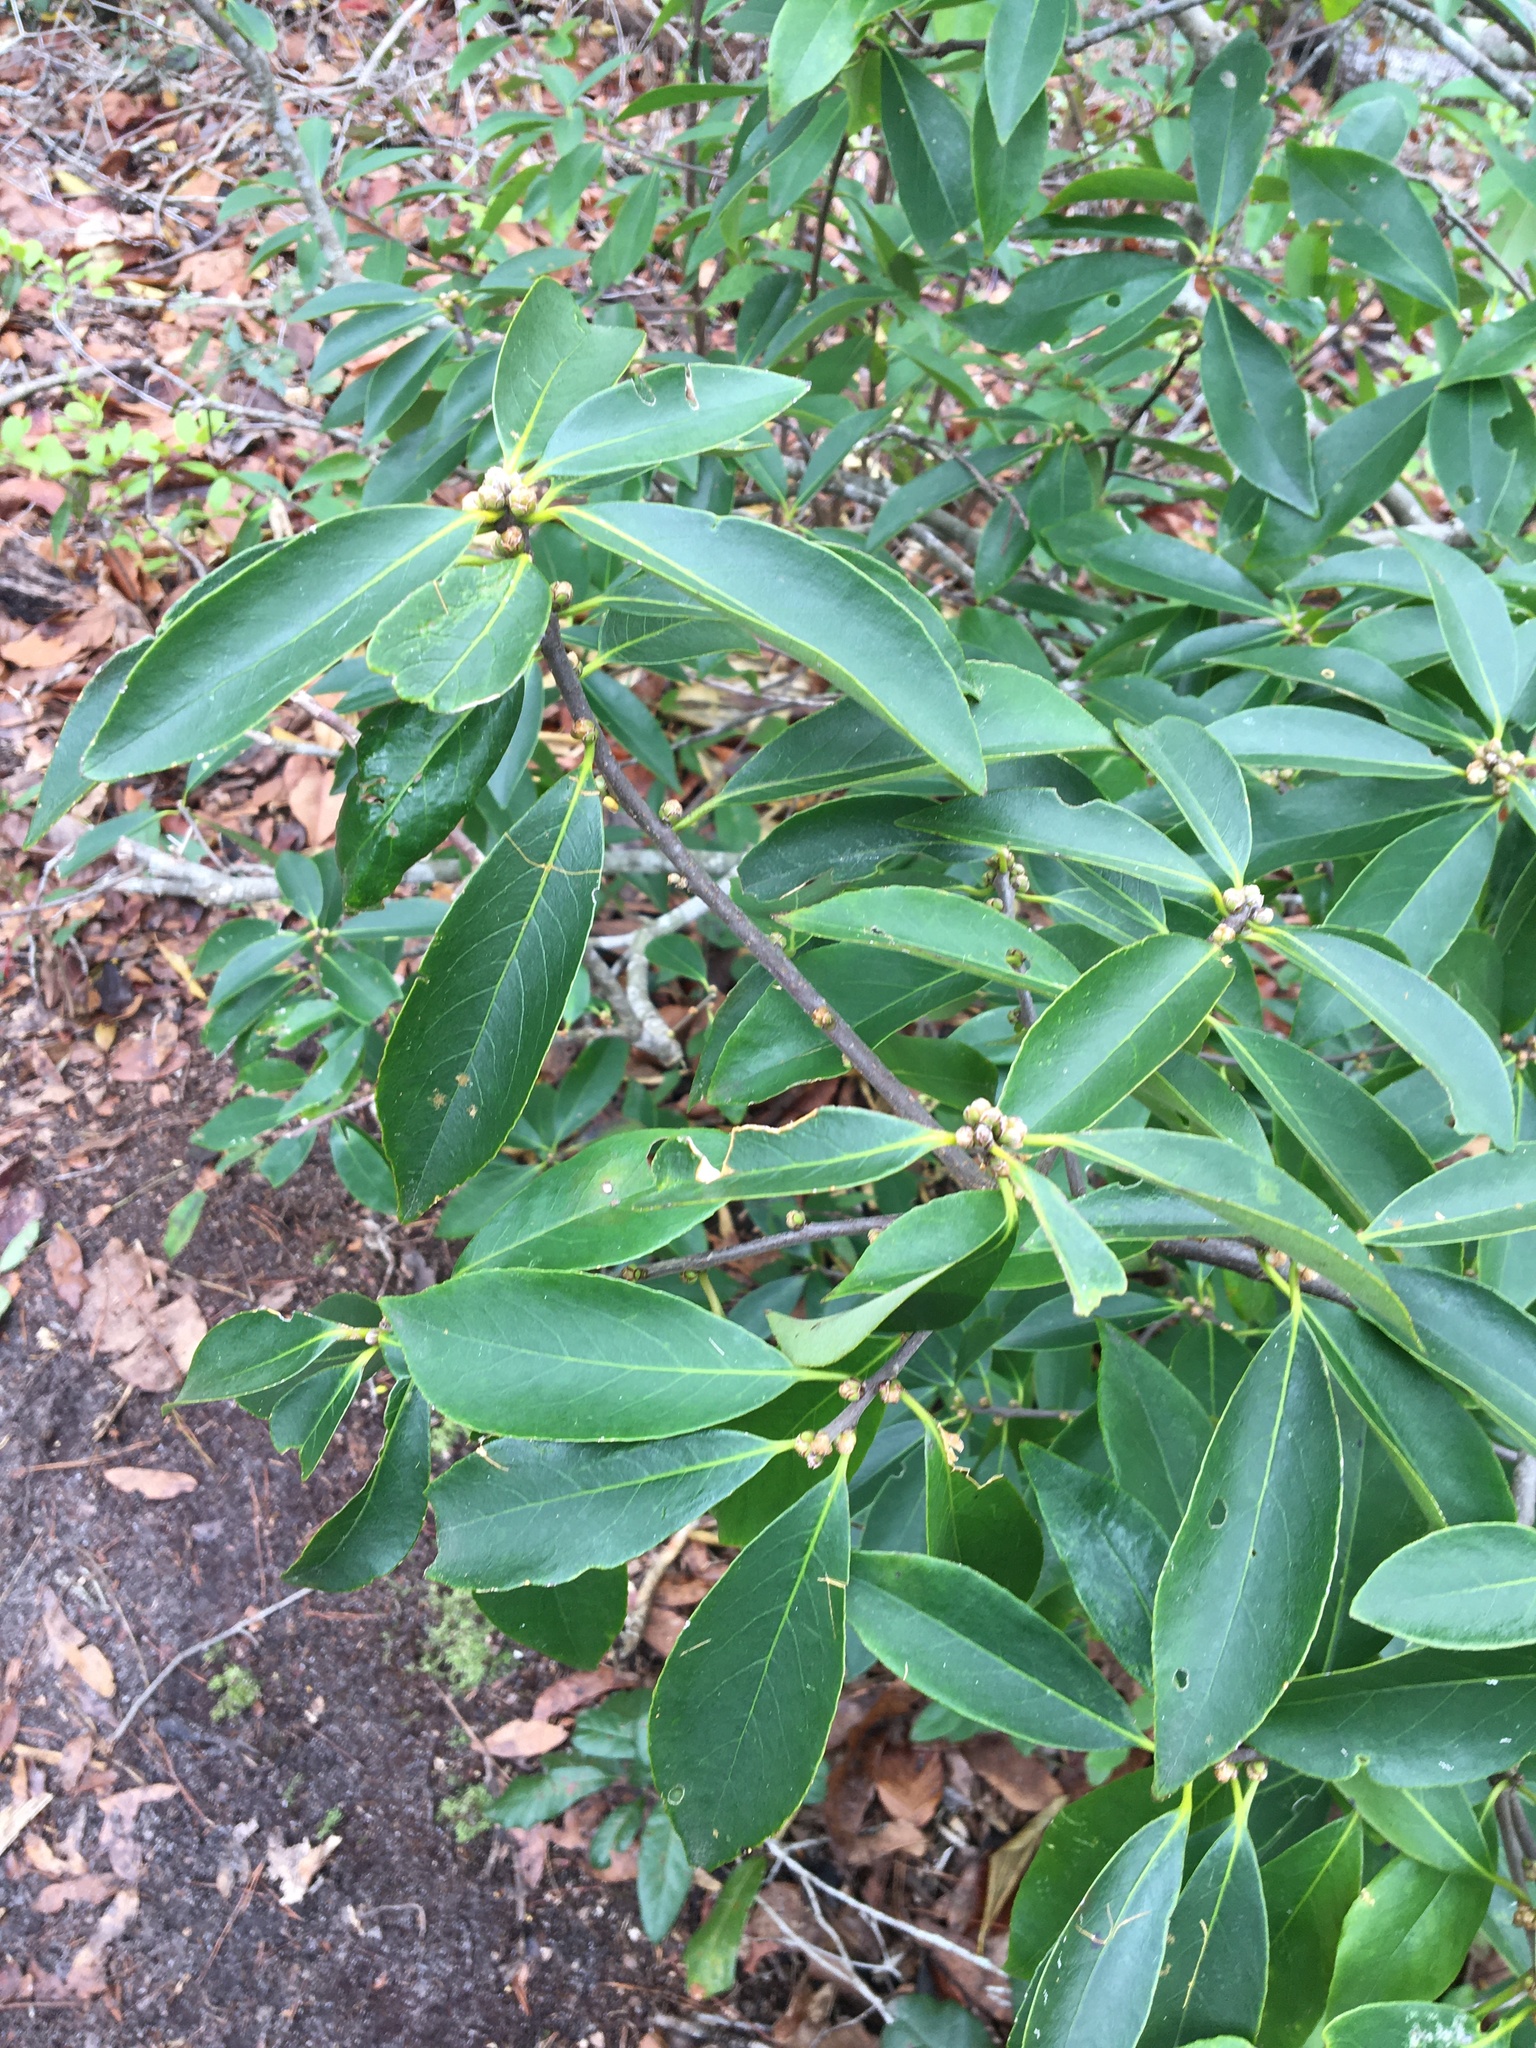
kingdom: Plantae
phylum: Tracheophyta
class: Magnoliopsida
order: Ericales
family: Symplocaceae
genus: Symplocos
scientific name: Symplocos tinctoria
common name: Horse-sugar
